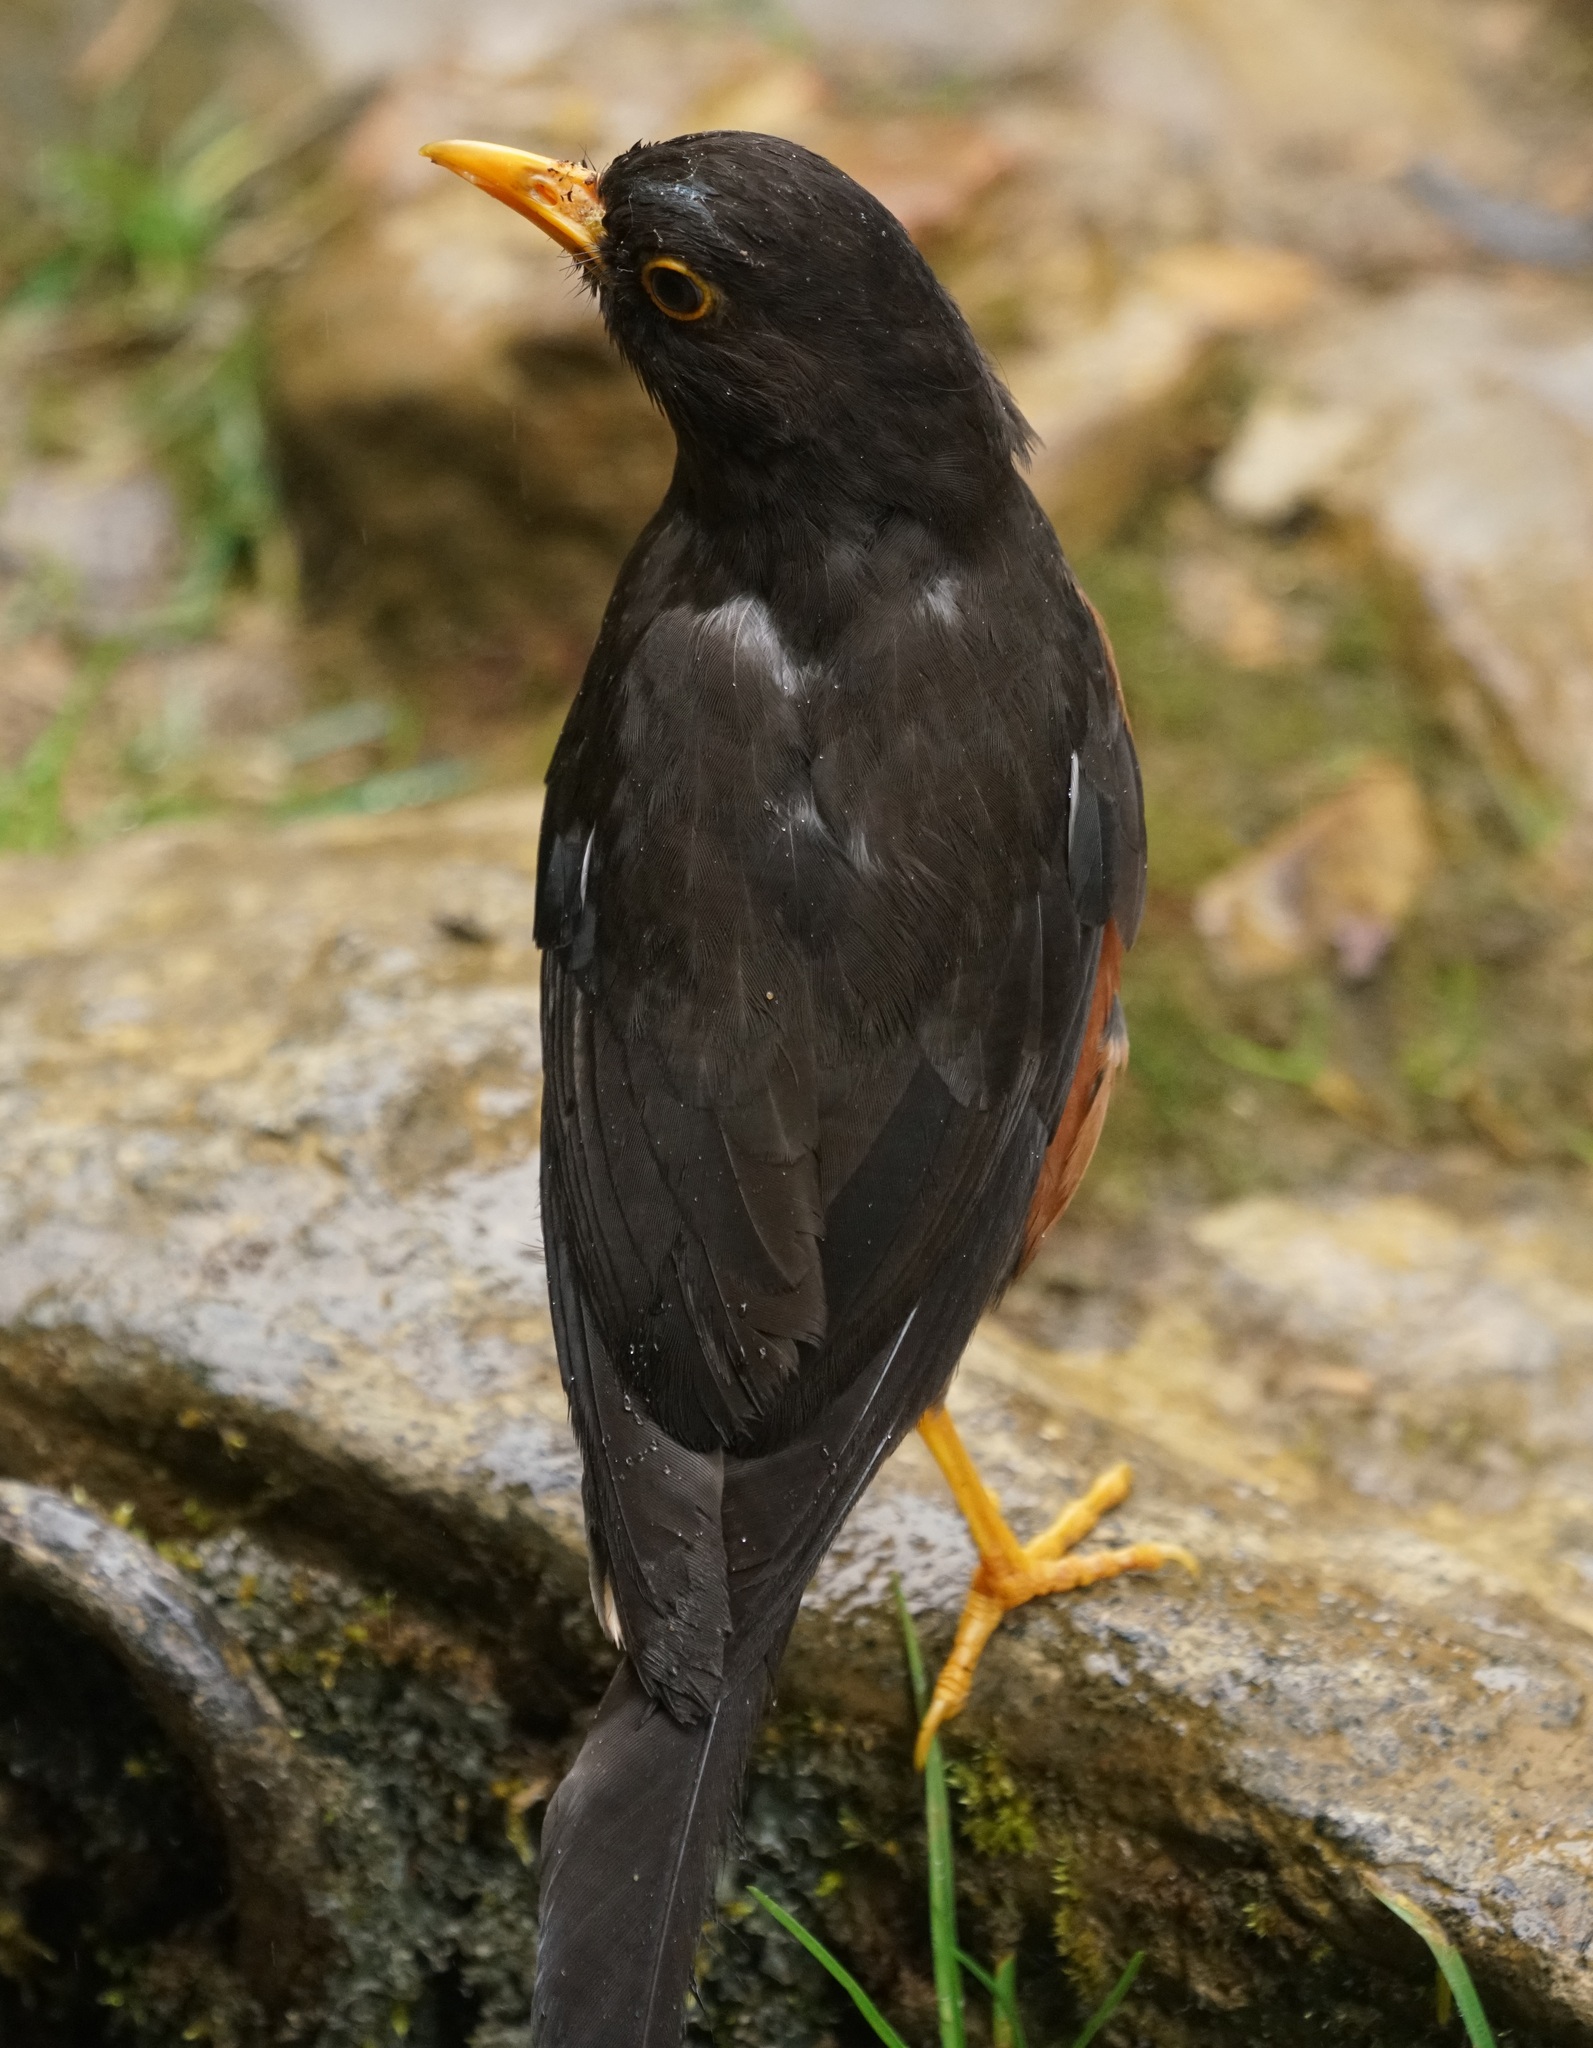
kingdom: Animalia
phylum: Chordata
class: Aves
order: Passeriformes
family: Turdidae
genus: Turdus
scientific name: Turdus poliocephalus
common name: Island thrush
